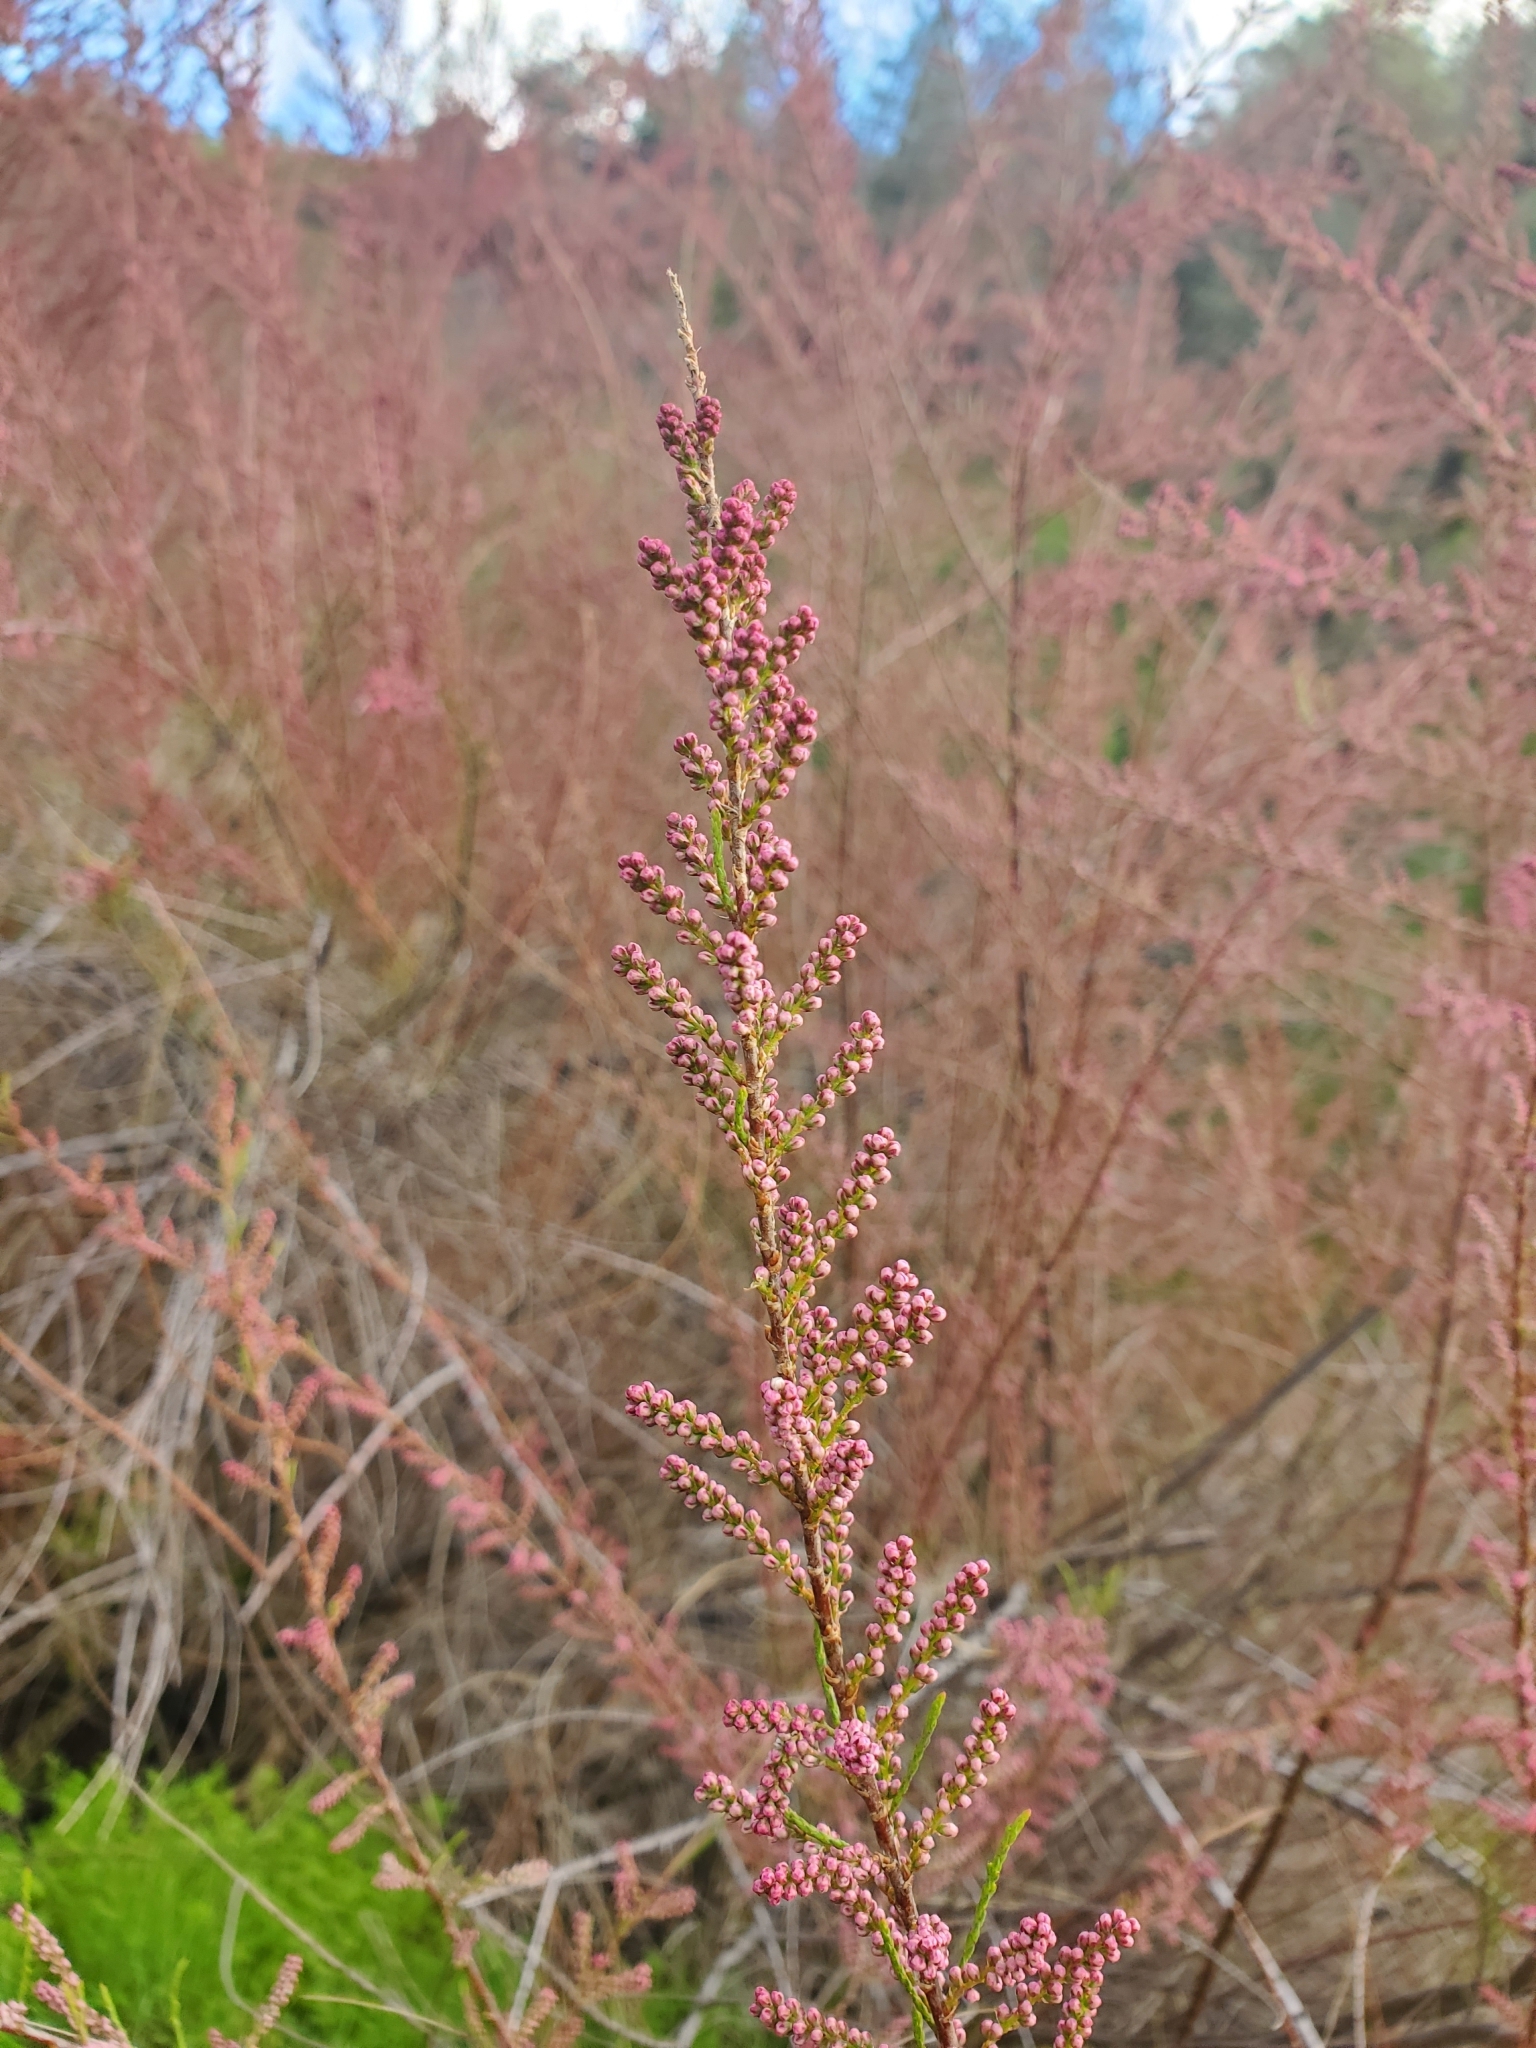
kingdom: Plantae
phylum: Tracheophyta
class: Magnoliopsida
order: Caryophyllales
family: Tamaricaceae
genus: Tamarix
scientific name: Tamarix parviflora
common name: Smallflower tamarisk
